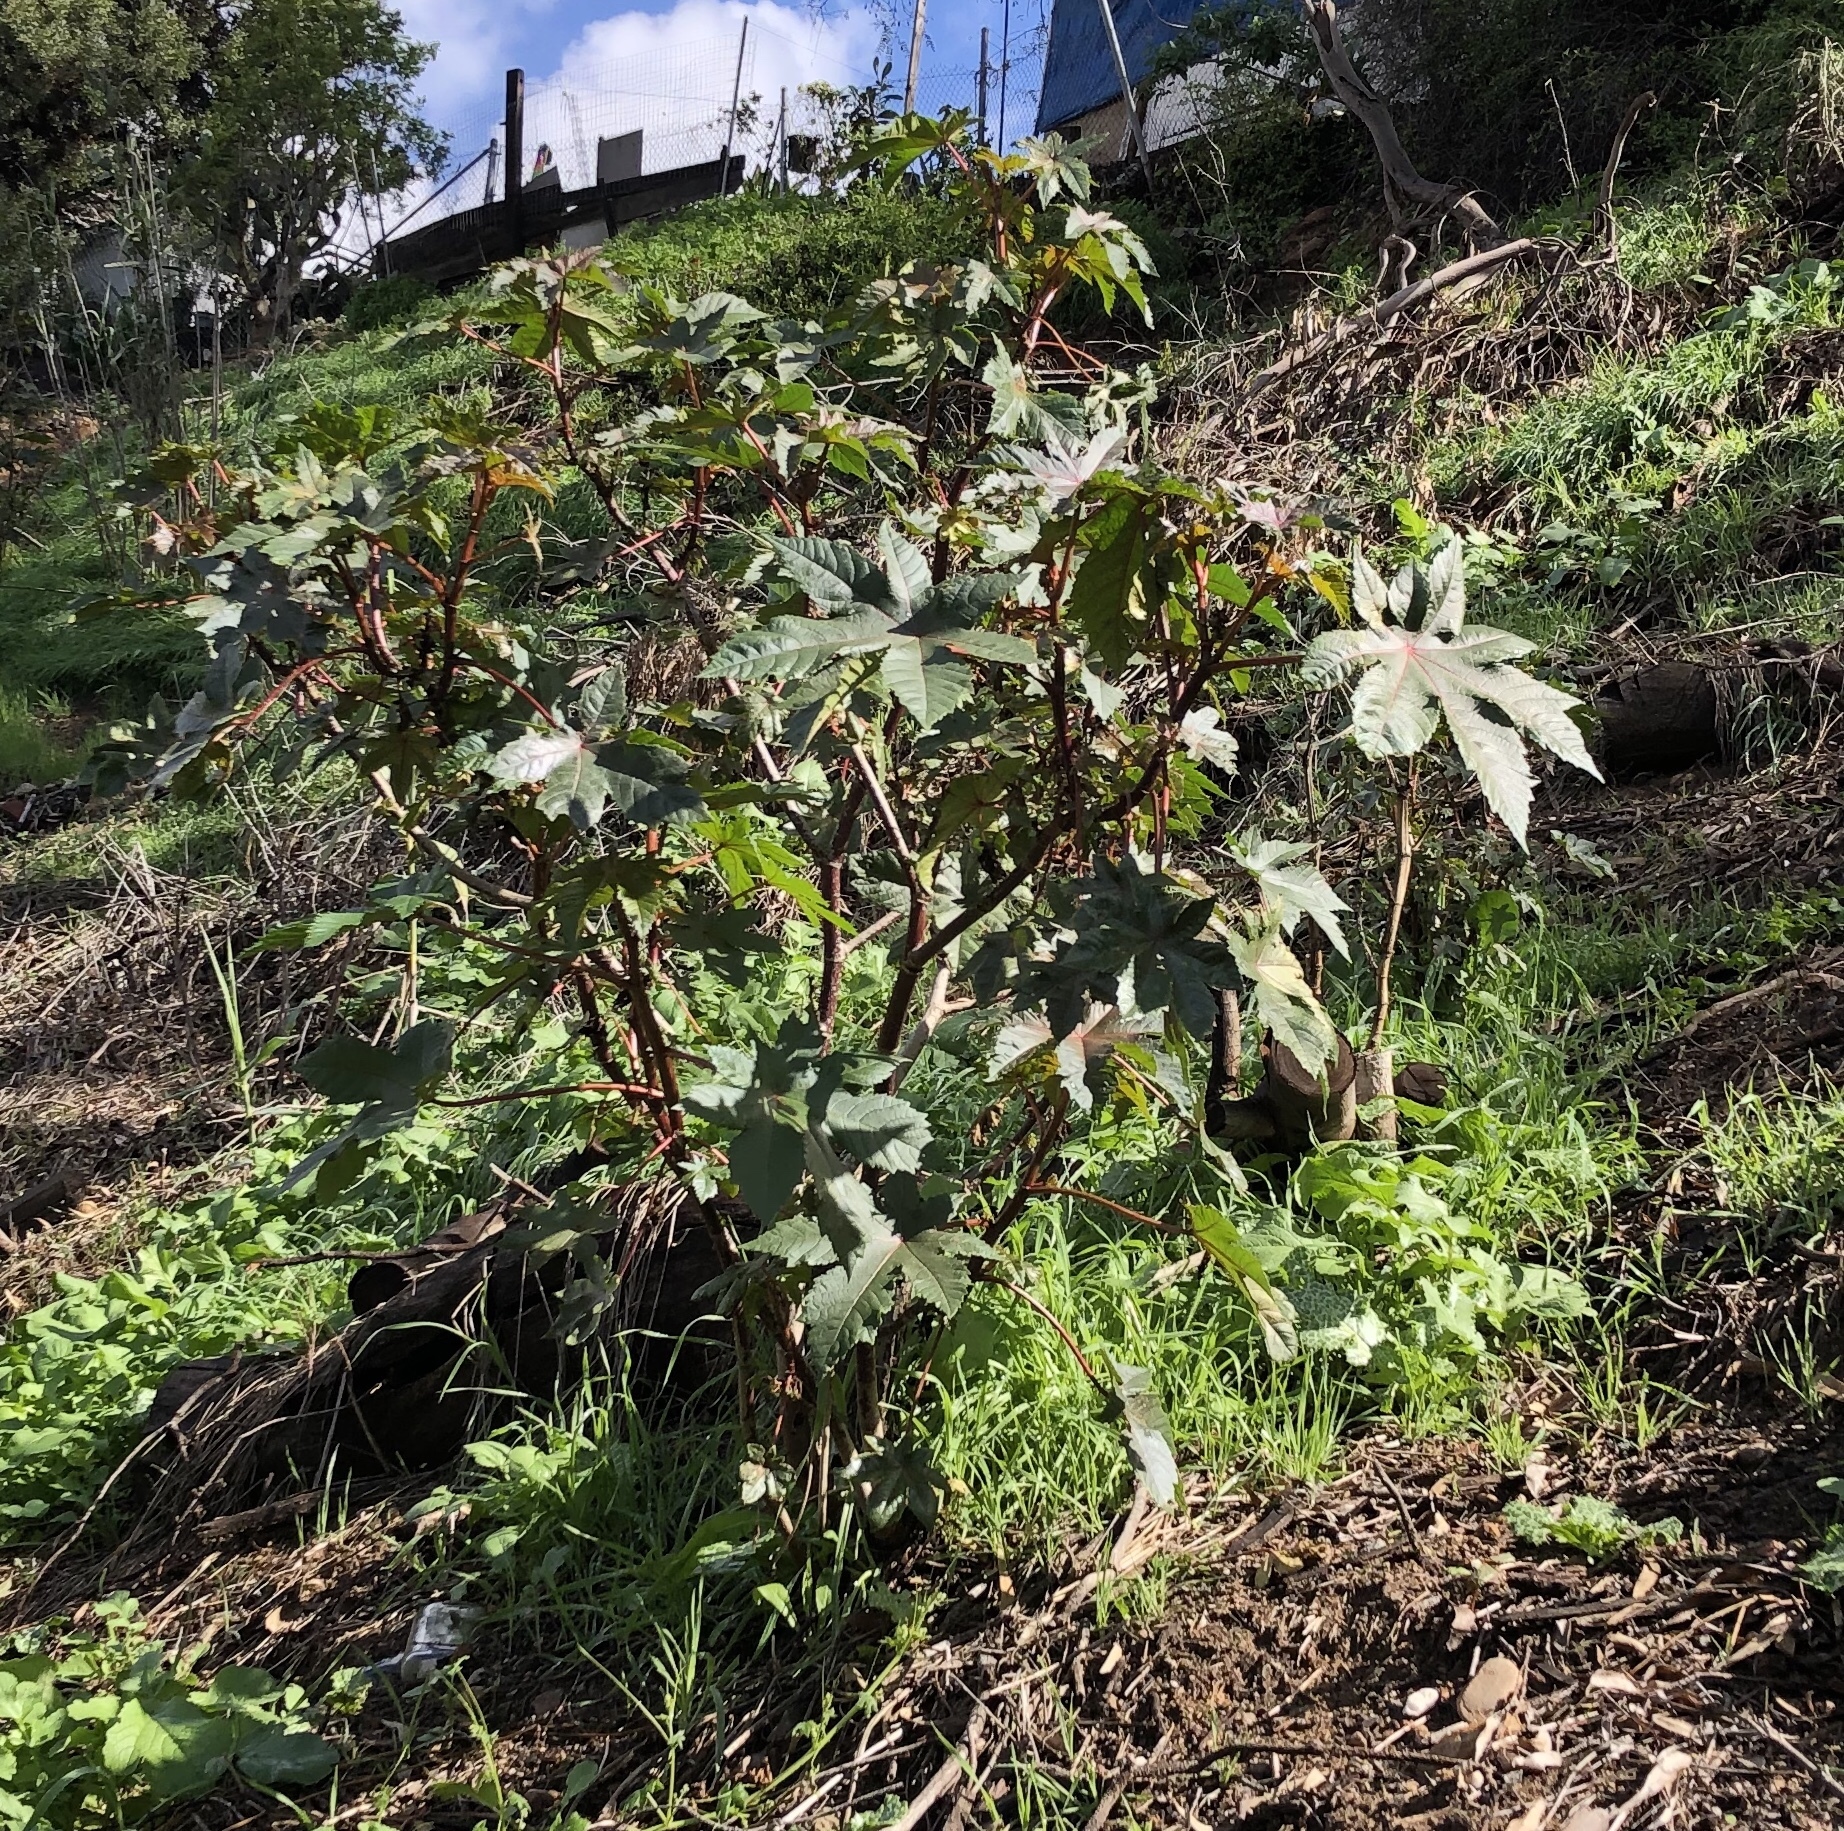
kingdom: Plantae
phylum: Tracheophyta
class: Magnoliopsida
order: Malpighiales
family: Euphorbiaceae
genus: Ricinus
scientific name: Ricinus communis
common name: Castor-oil-plant
